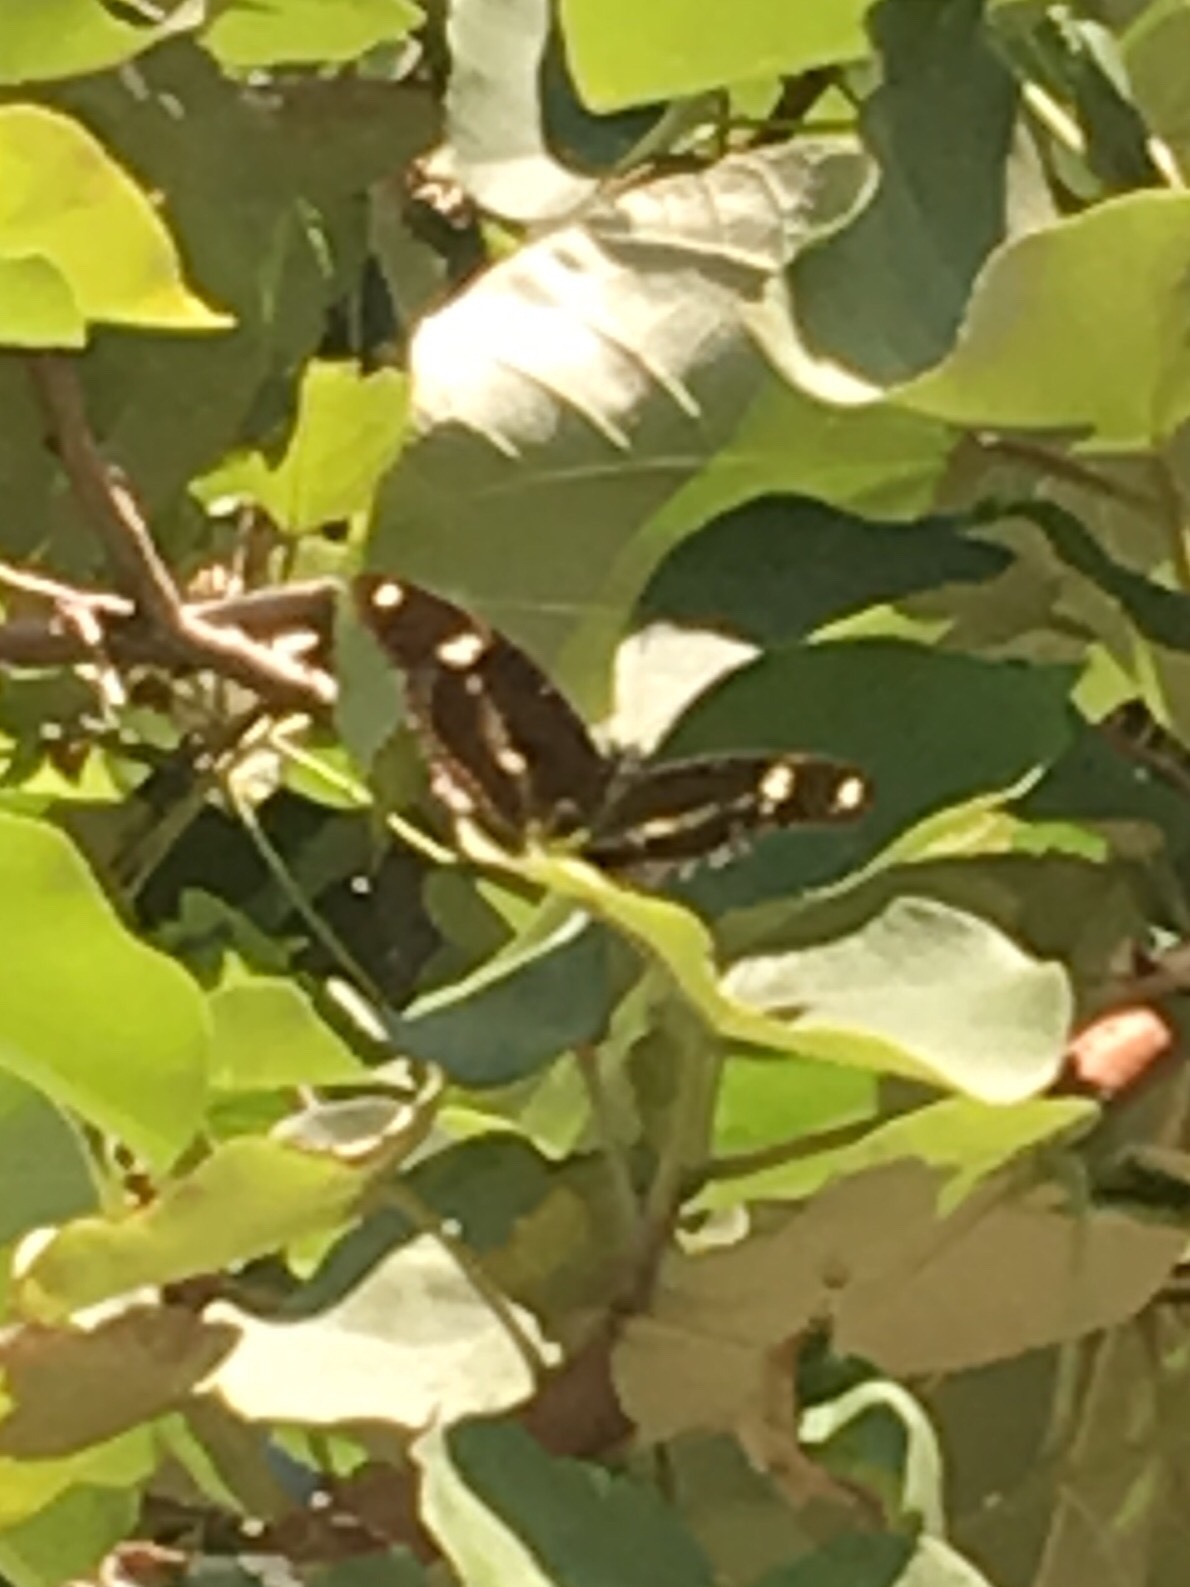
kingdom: Animalia
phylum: Arthropoda
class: Insecta
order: Lepidoptera
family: Nymphalidae
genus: Hypolimnas
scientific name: Hypolimnas bolina
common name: Great eggfly
